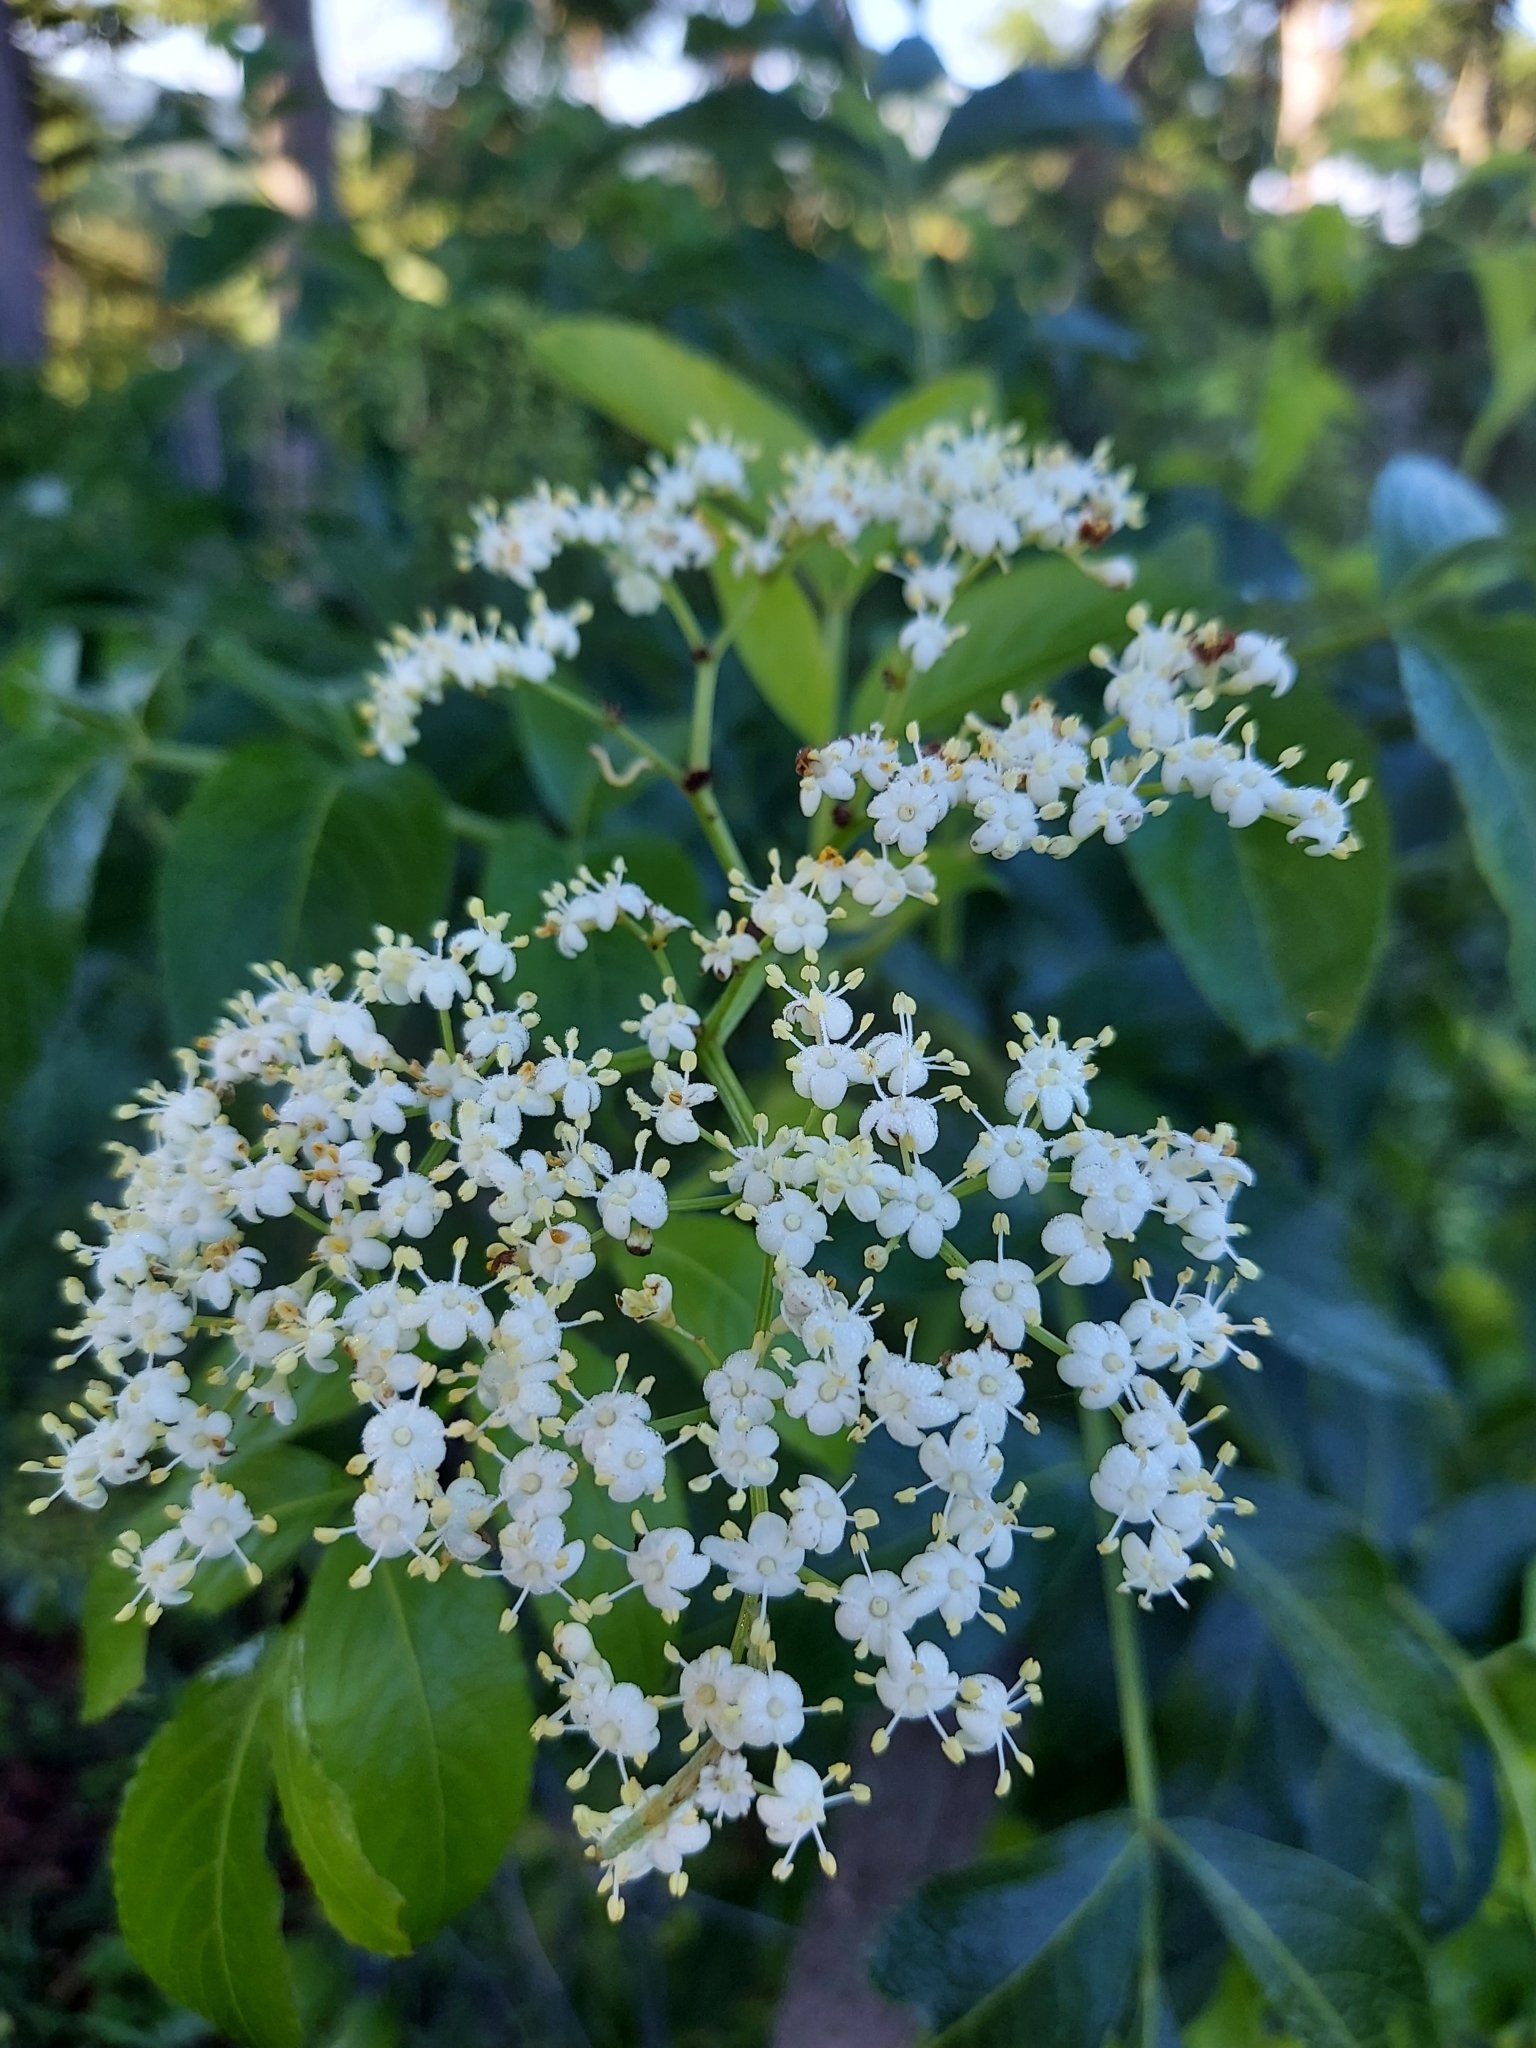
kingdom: Plantae
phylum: Tracheophyta
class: Magnoliopsida
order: Dipsacales
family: Viburnaceae
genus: Sambucus
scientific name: Sambucus canadensis
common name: American elder
